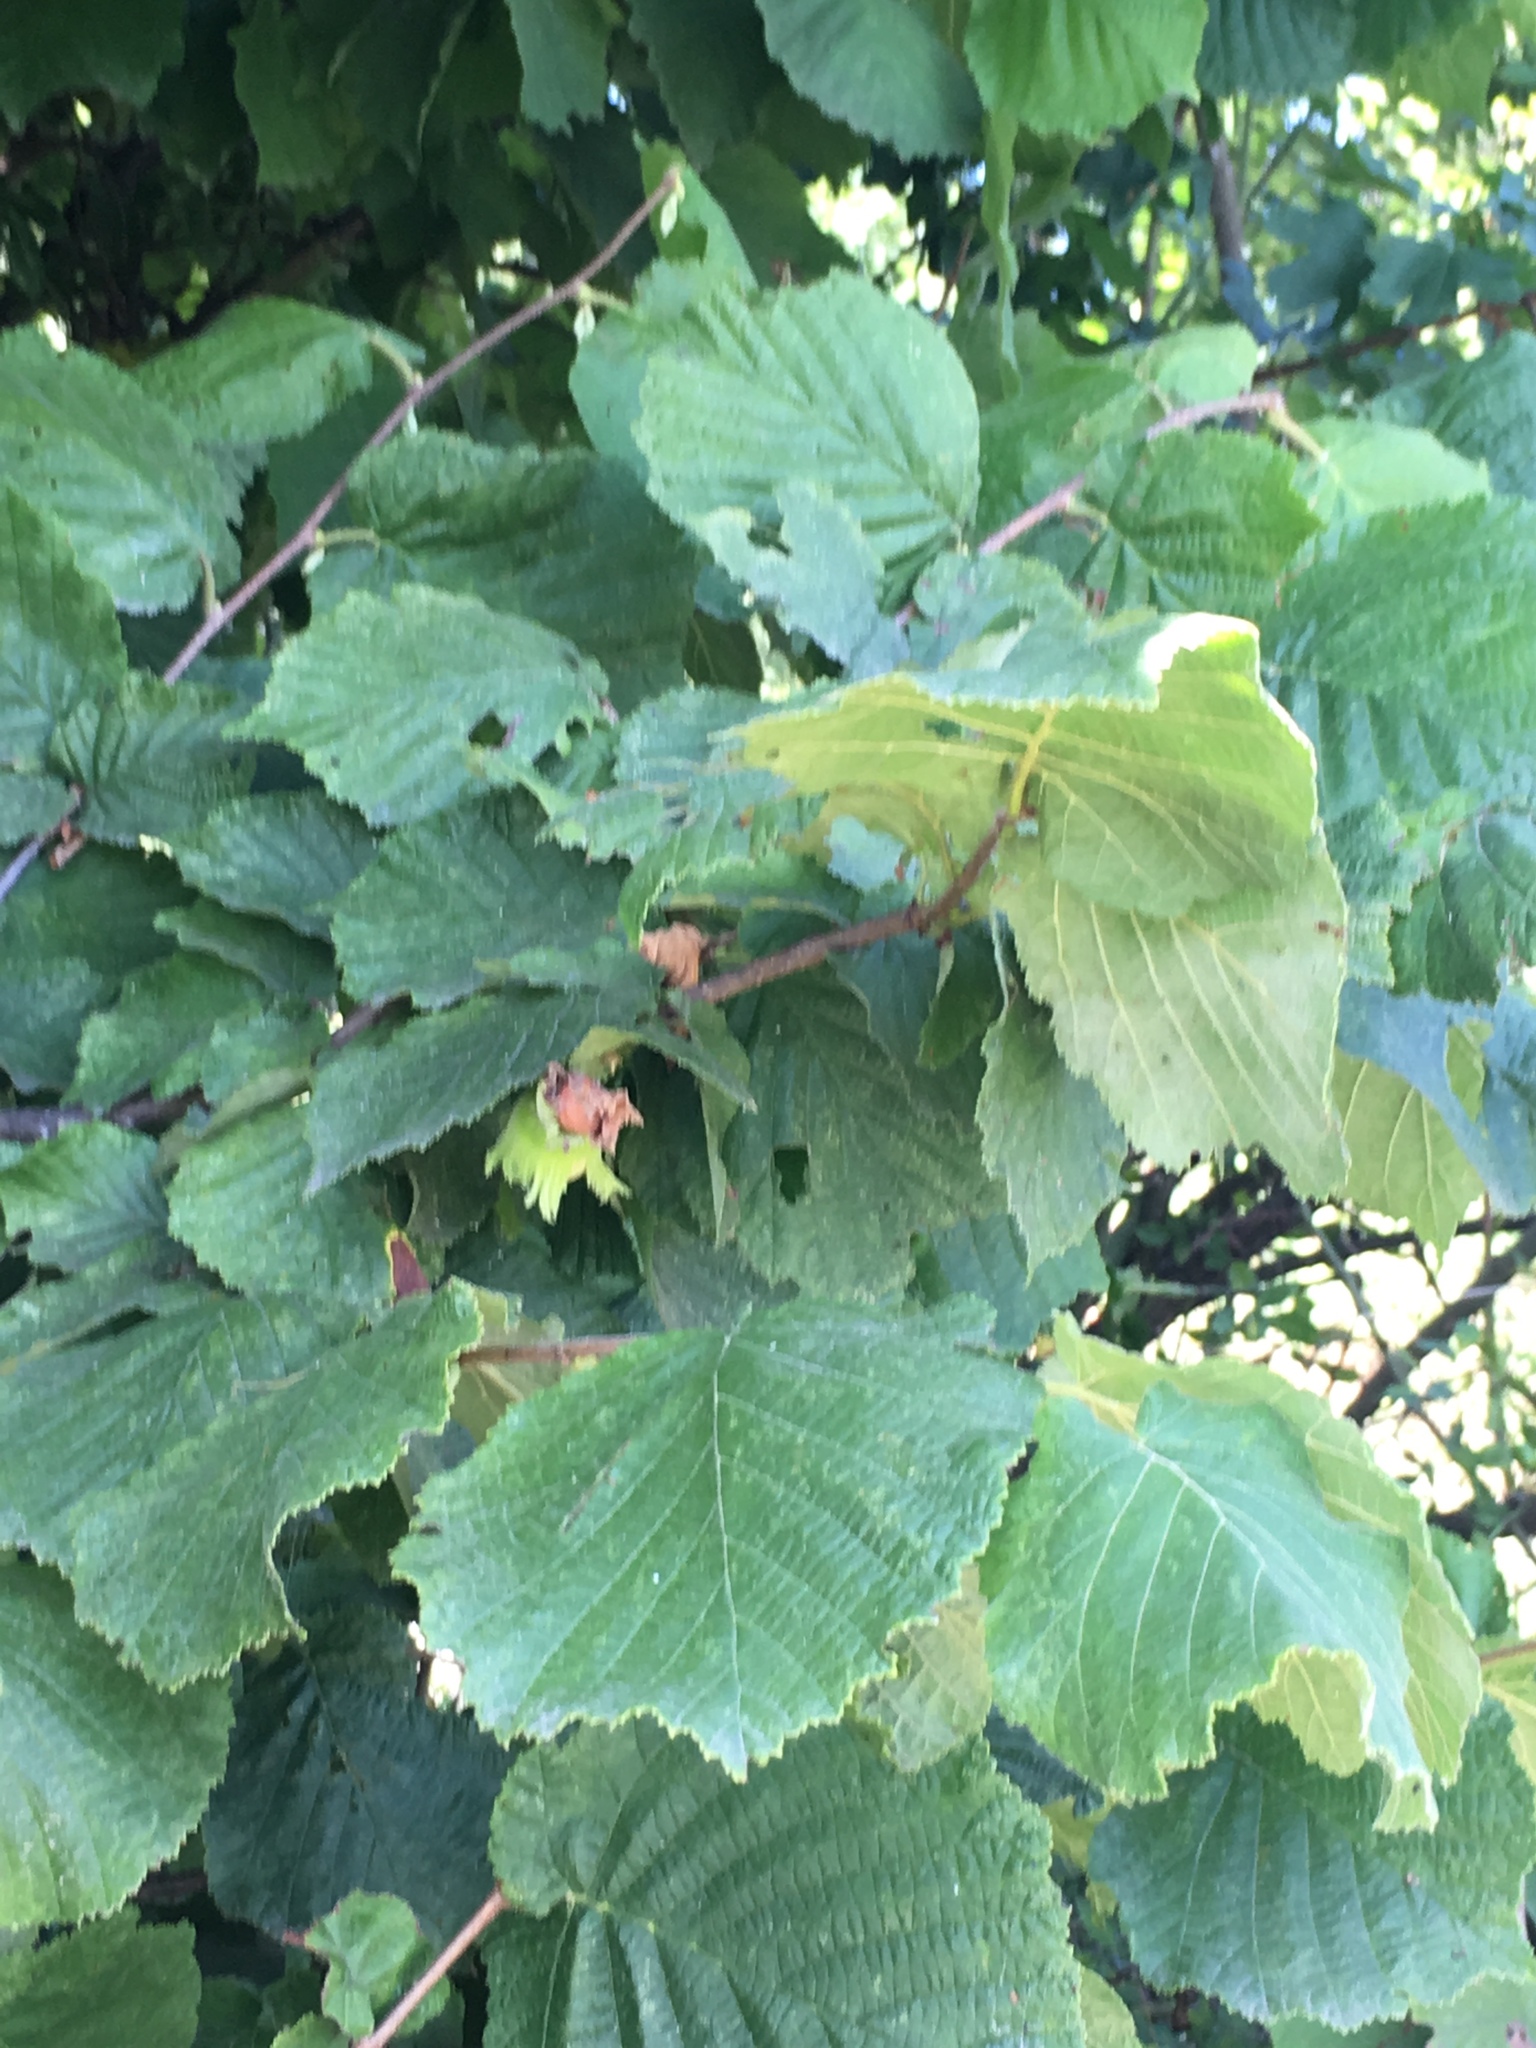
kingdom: Plantae
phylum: Tracheophyta
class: Magnoliopsida
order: Fagales
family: Betulaceae
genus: Corylus
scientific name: Corylus avellana
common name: European hazel
